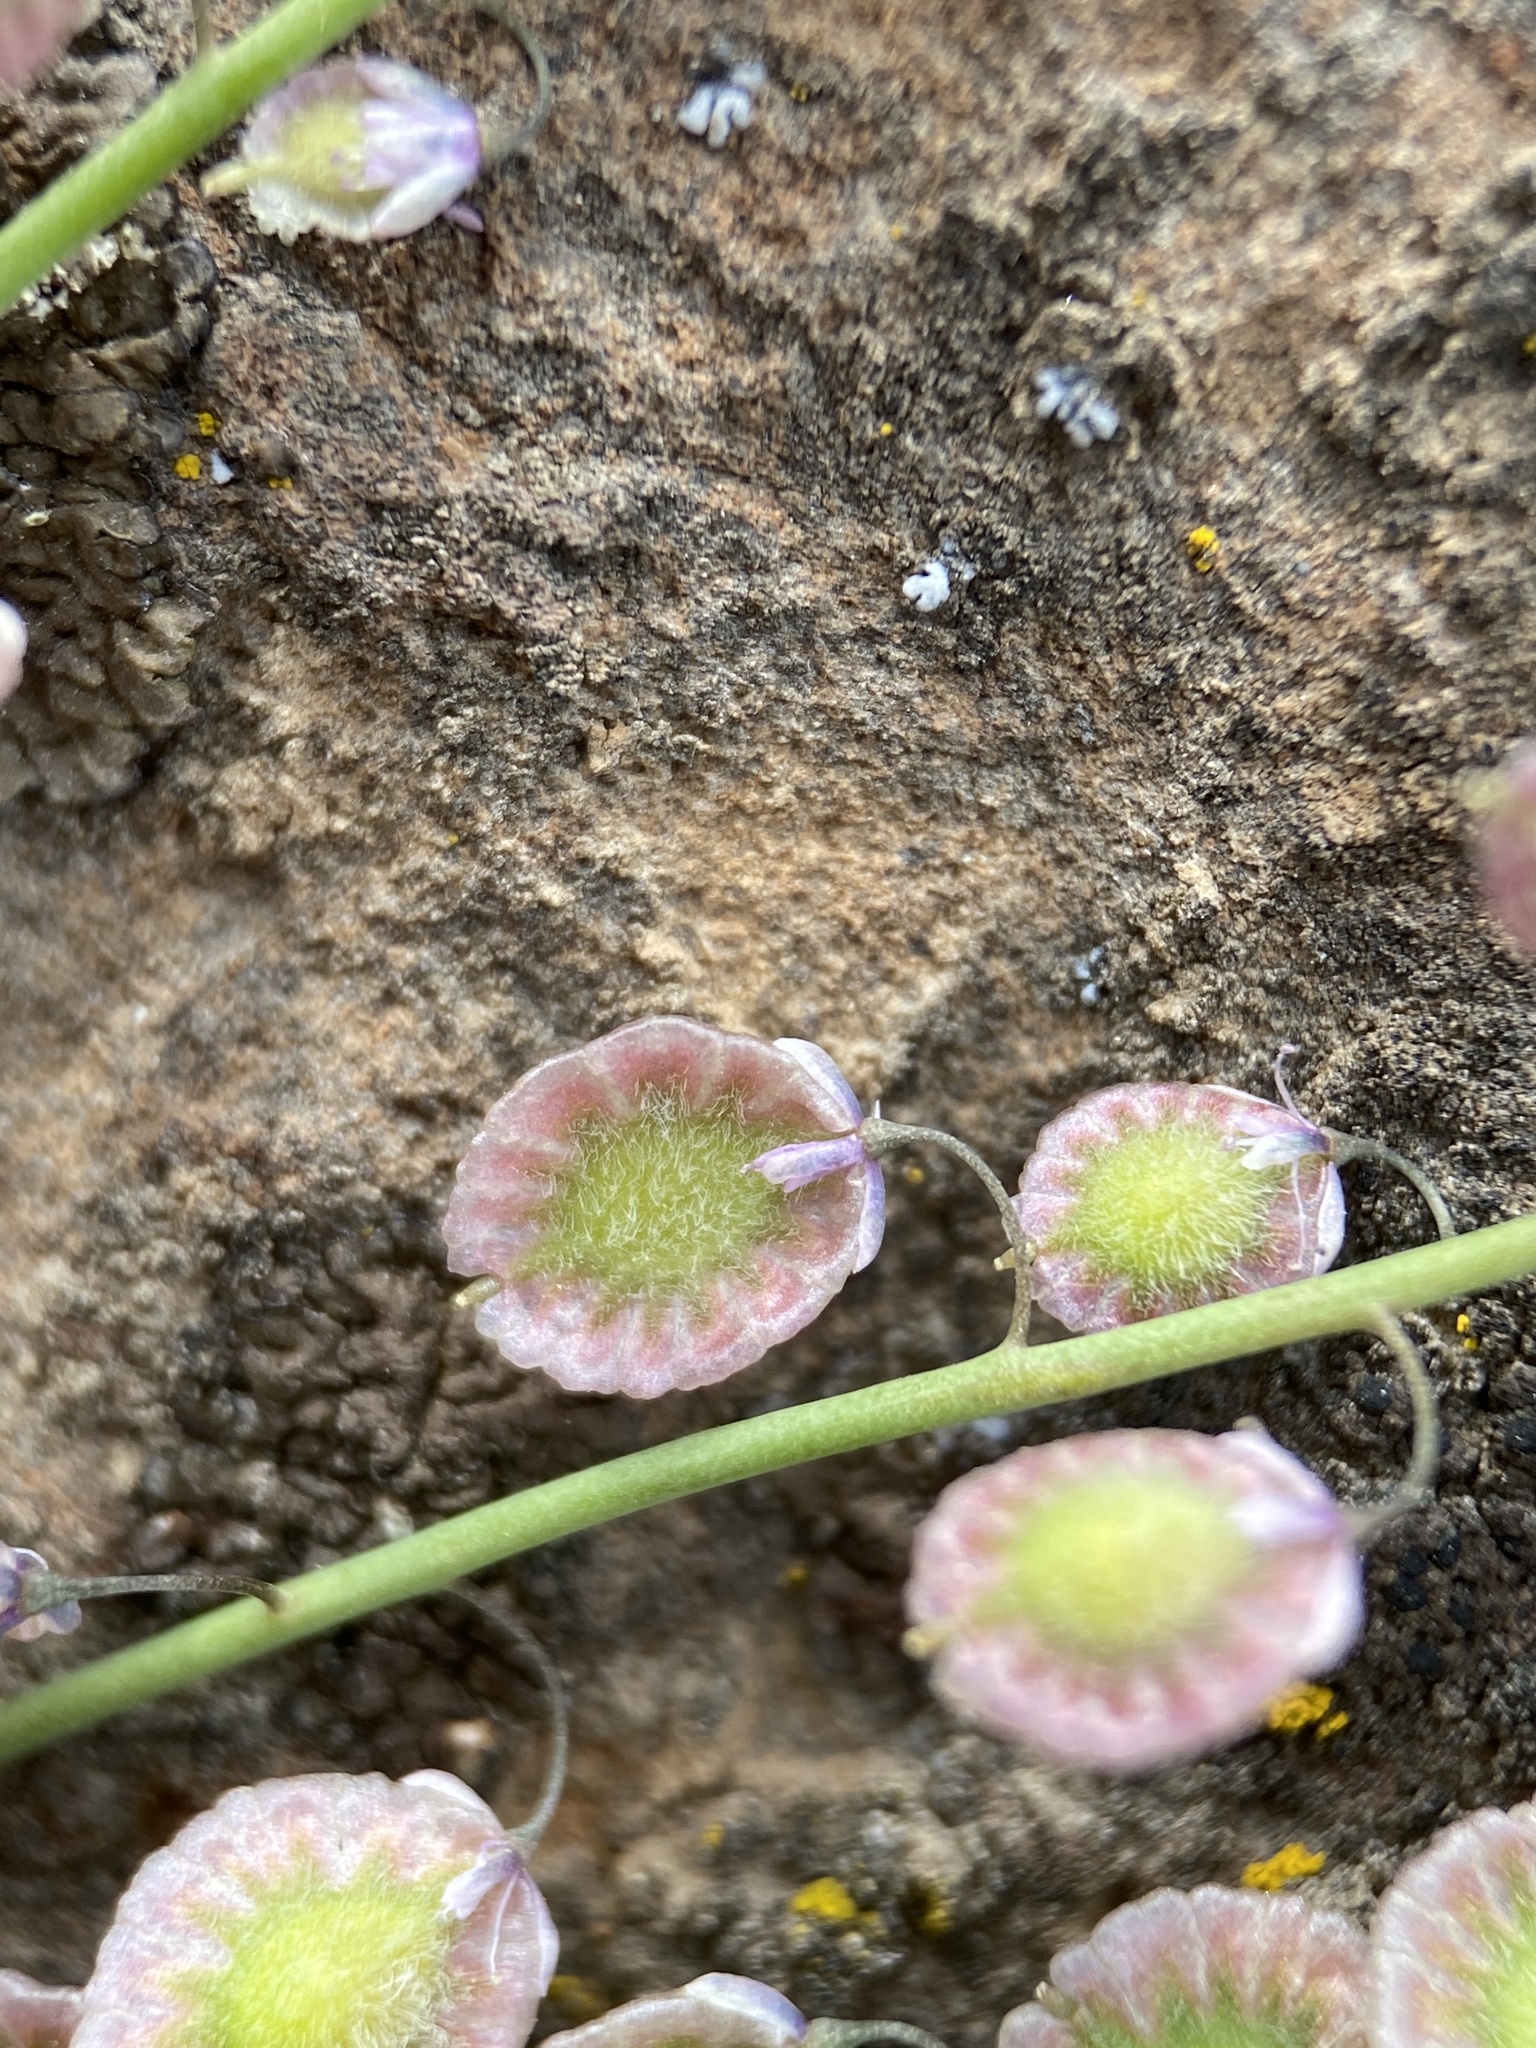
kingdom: Plantae
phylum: Tracheophyta
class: Magnoliopsida
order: Brassicales
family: Brassicaceae
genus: Thysanocarpus
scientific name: Thysanocarpus curvipes
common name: Sand fringepod
